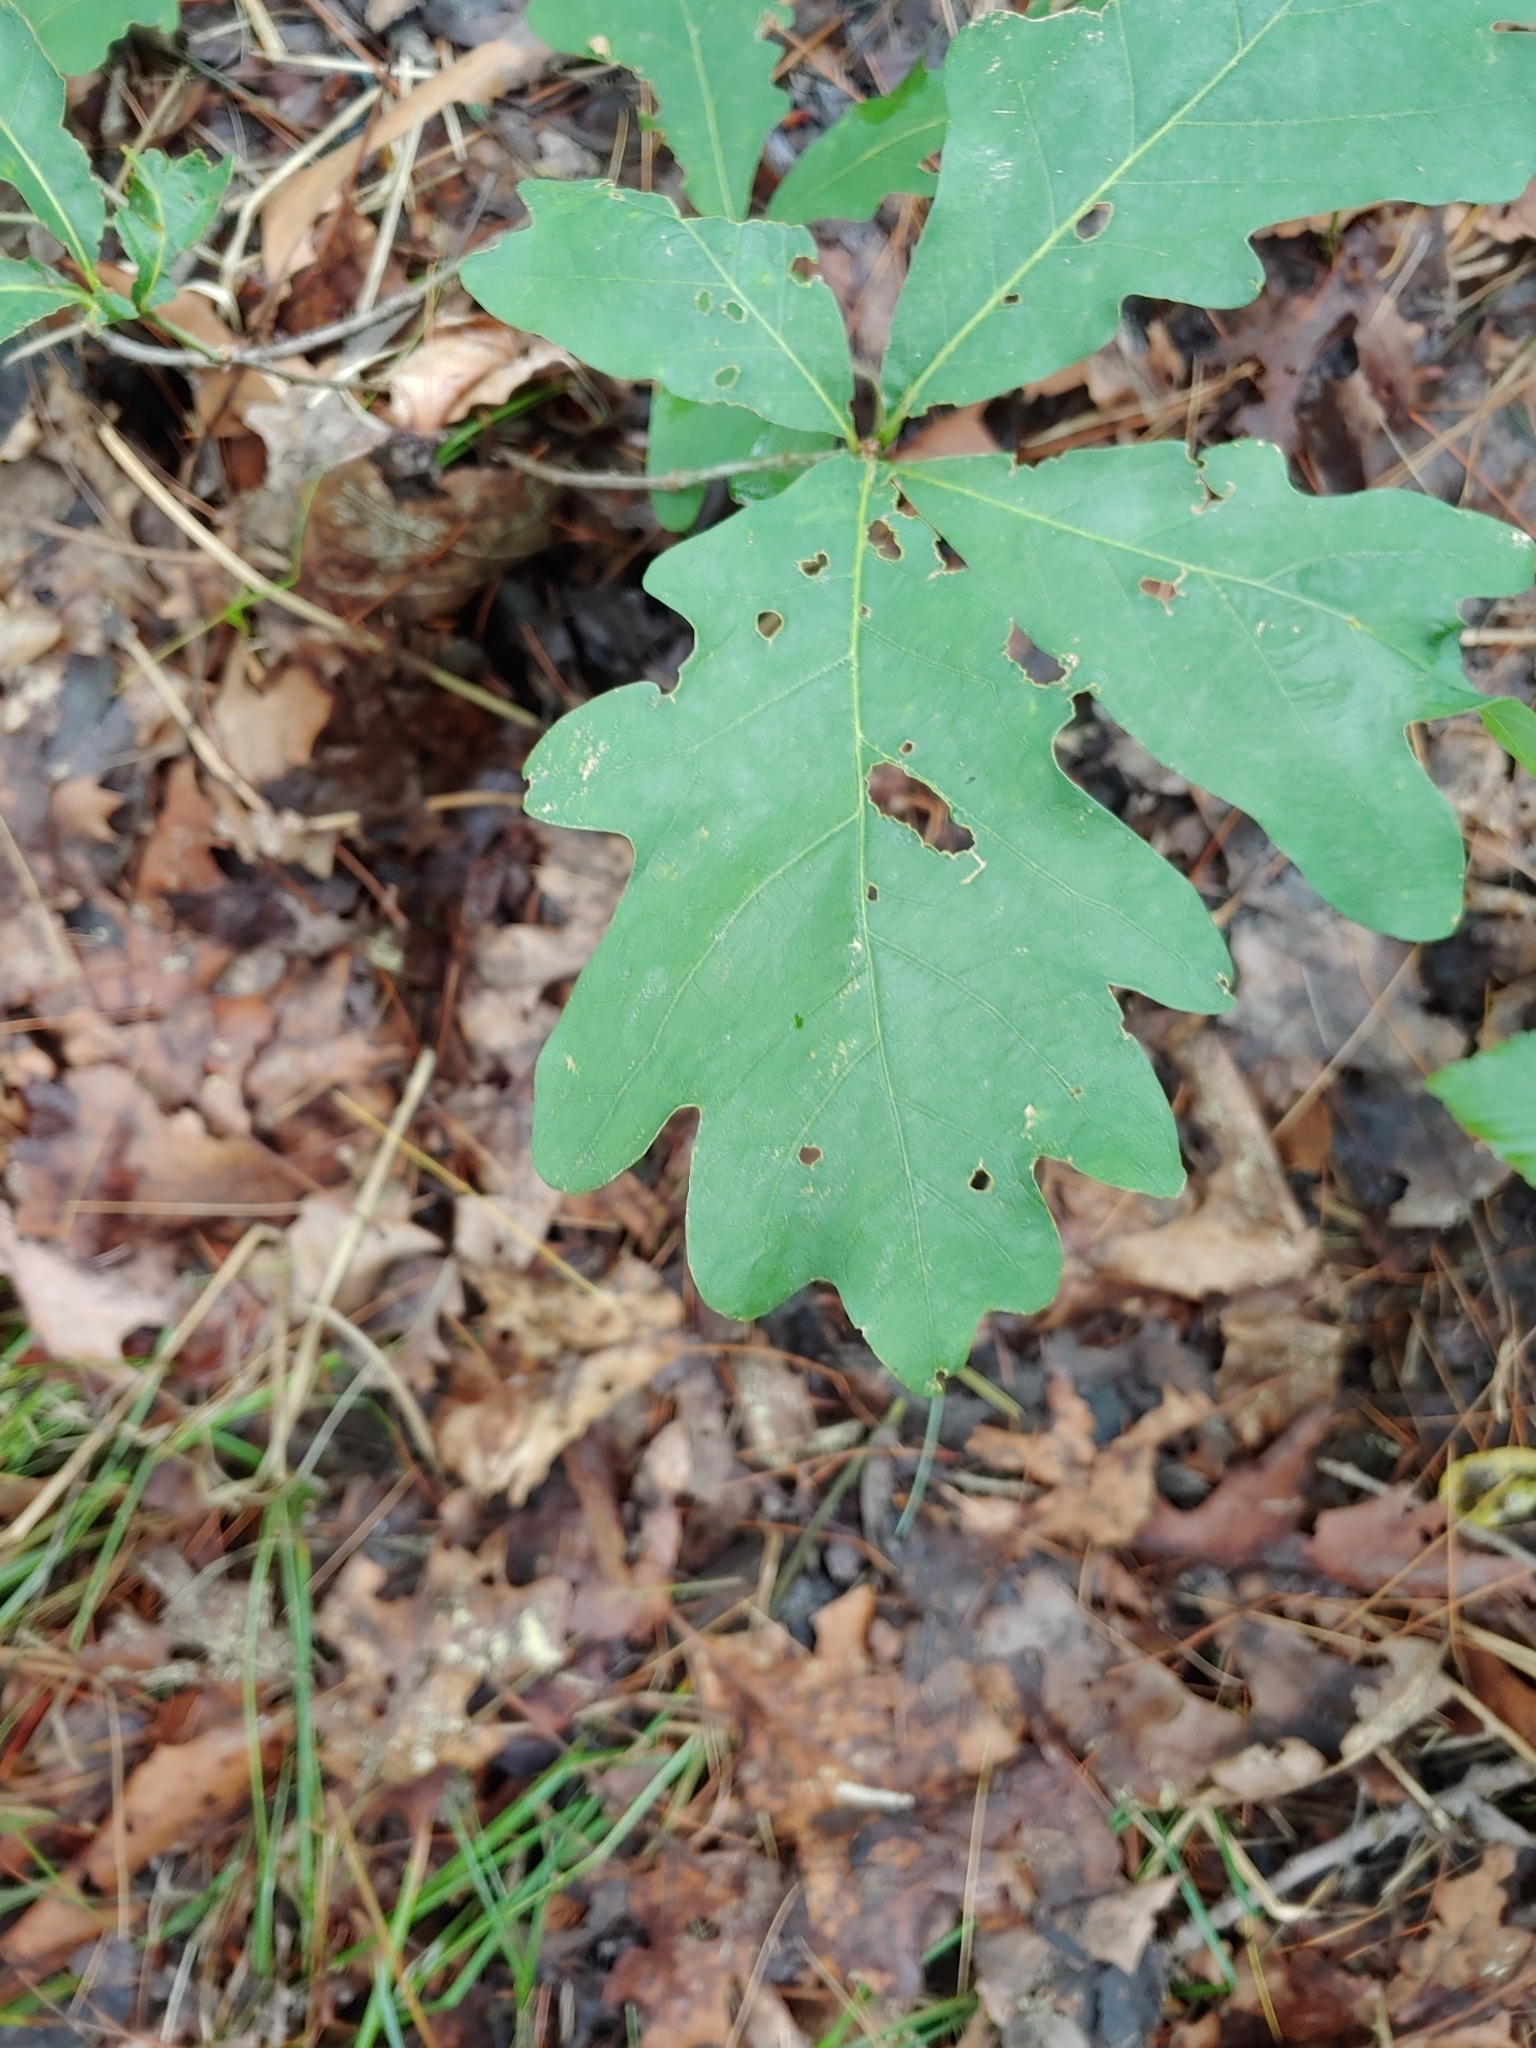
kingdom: Plantae
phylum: Tracheophyta
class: Magnoliopsida
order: Fagales
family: Fagaceae
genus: Quercus
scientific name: Quercus alba
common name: White oak
